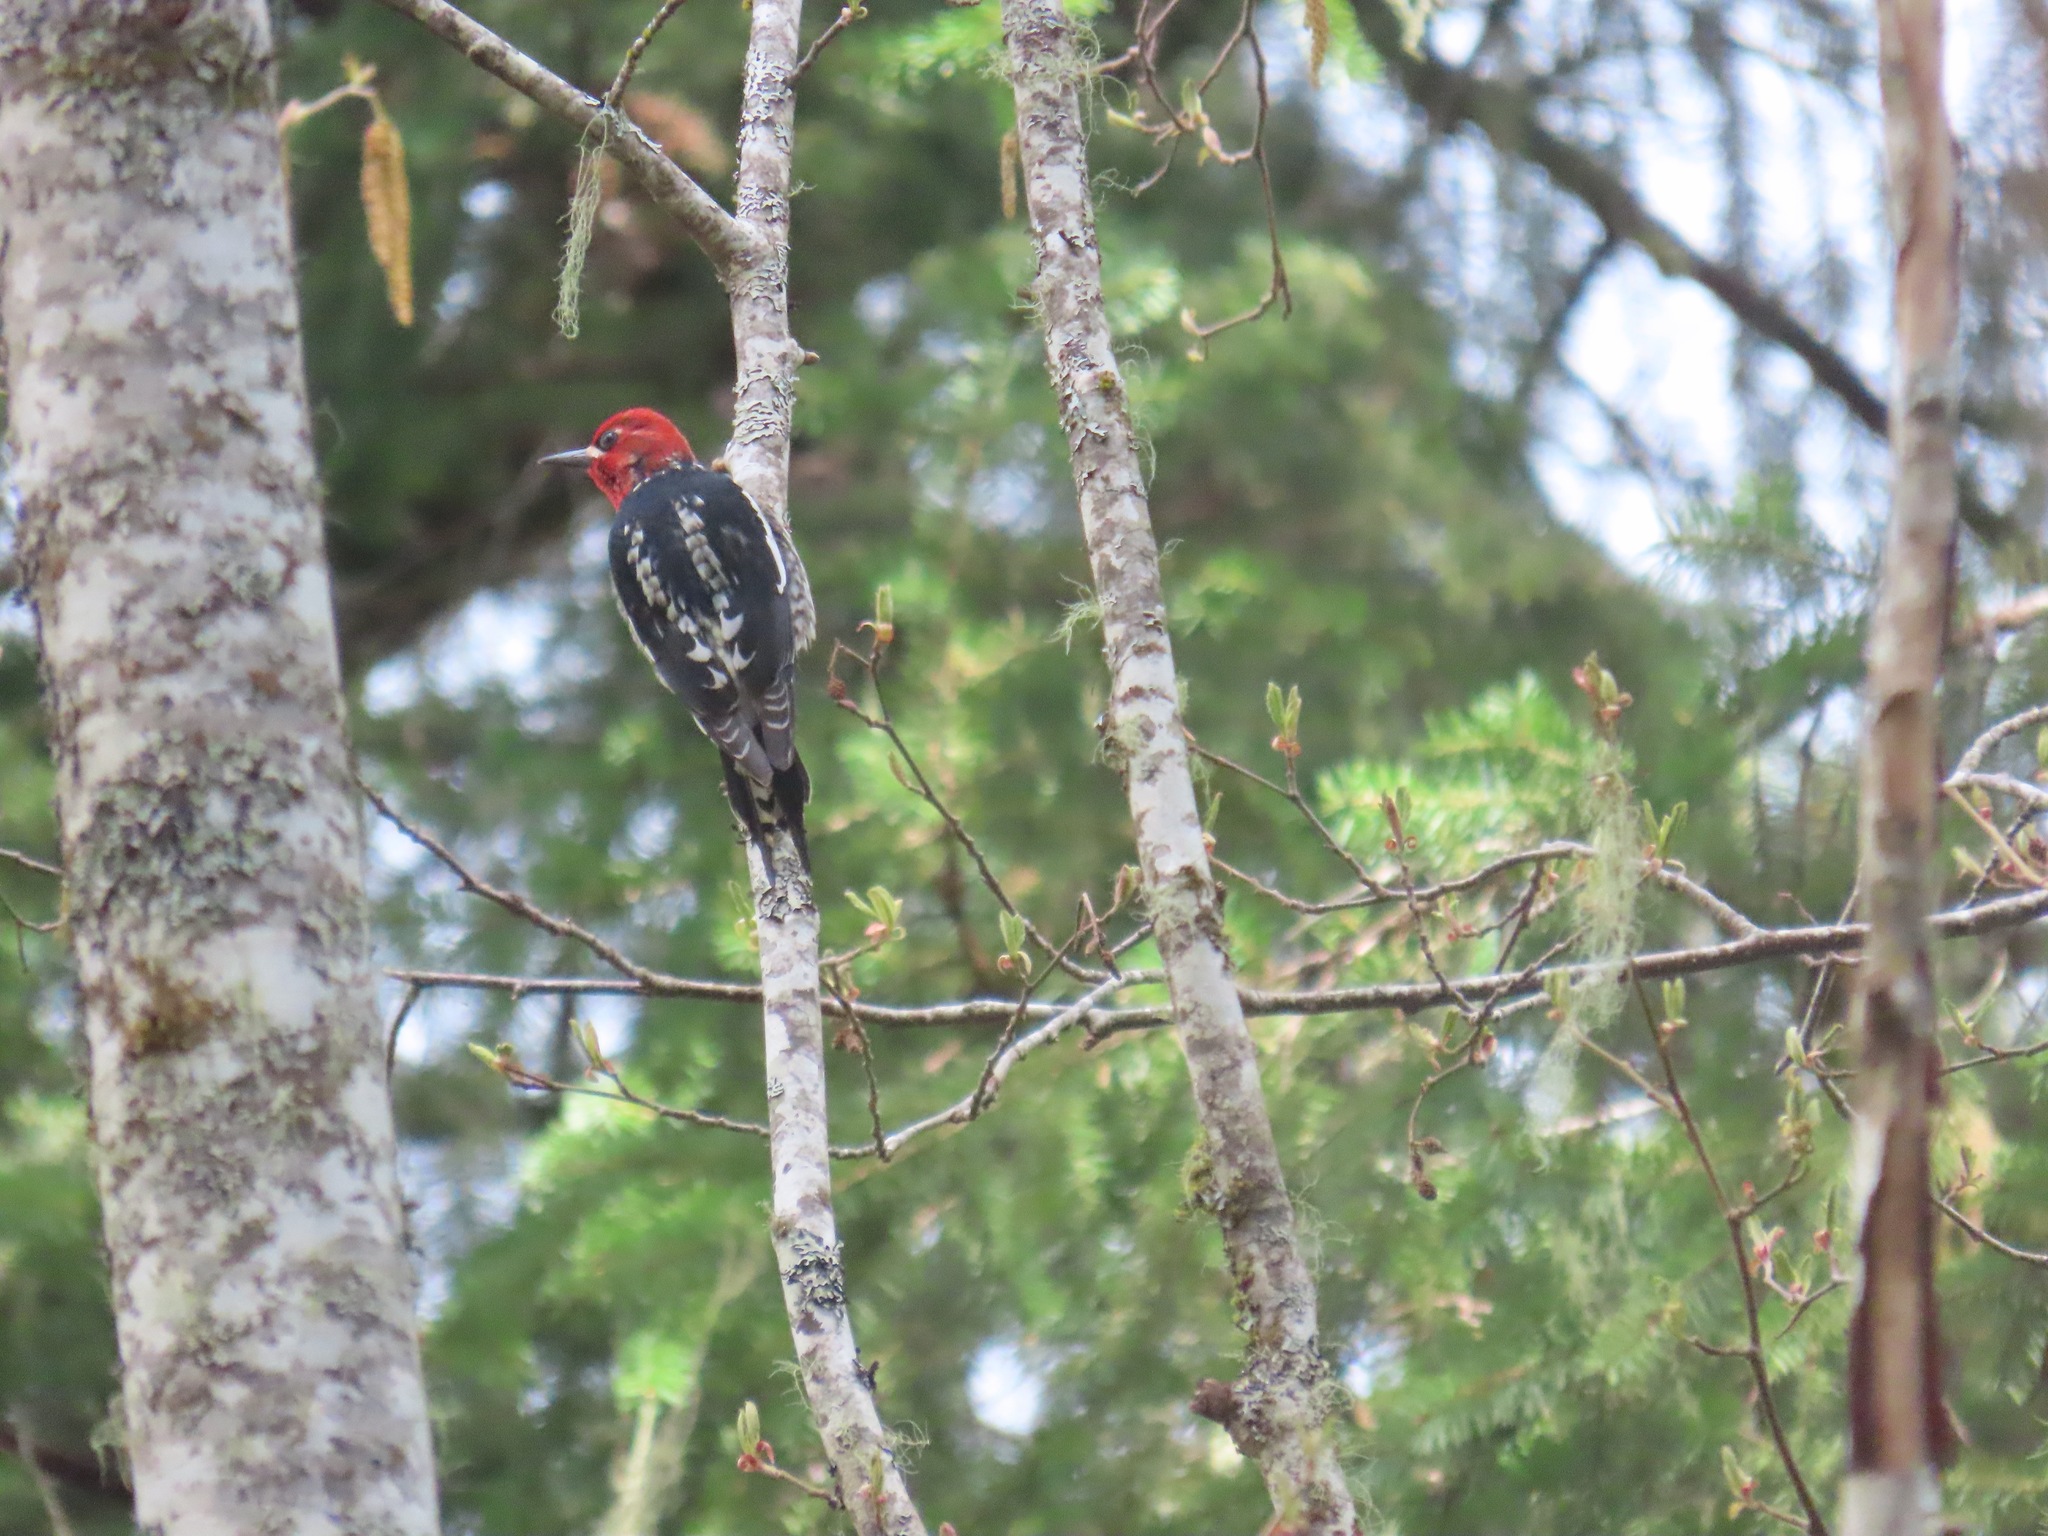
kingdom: Animalia
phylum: Chordata
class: Aves
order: Piciformes
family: Picidae
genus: Sphyrapicus
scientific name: Sphyrapicus ruber
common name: Red-breasted sapsucker
